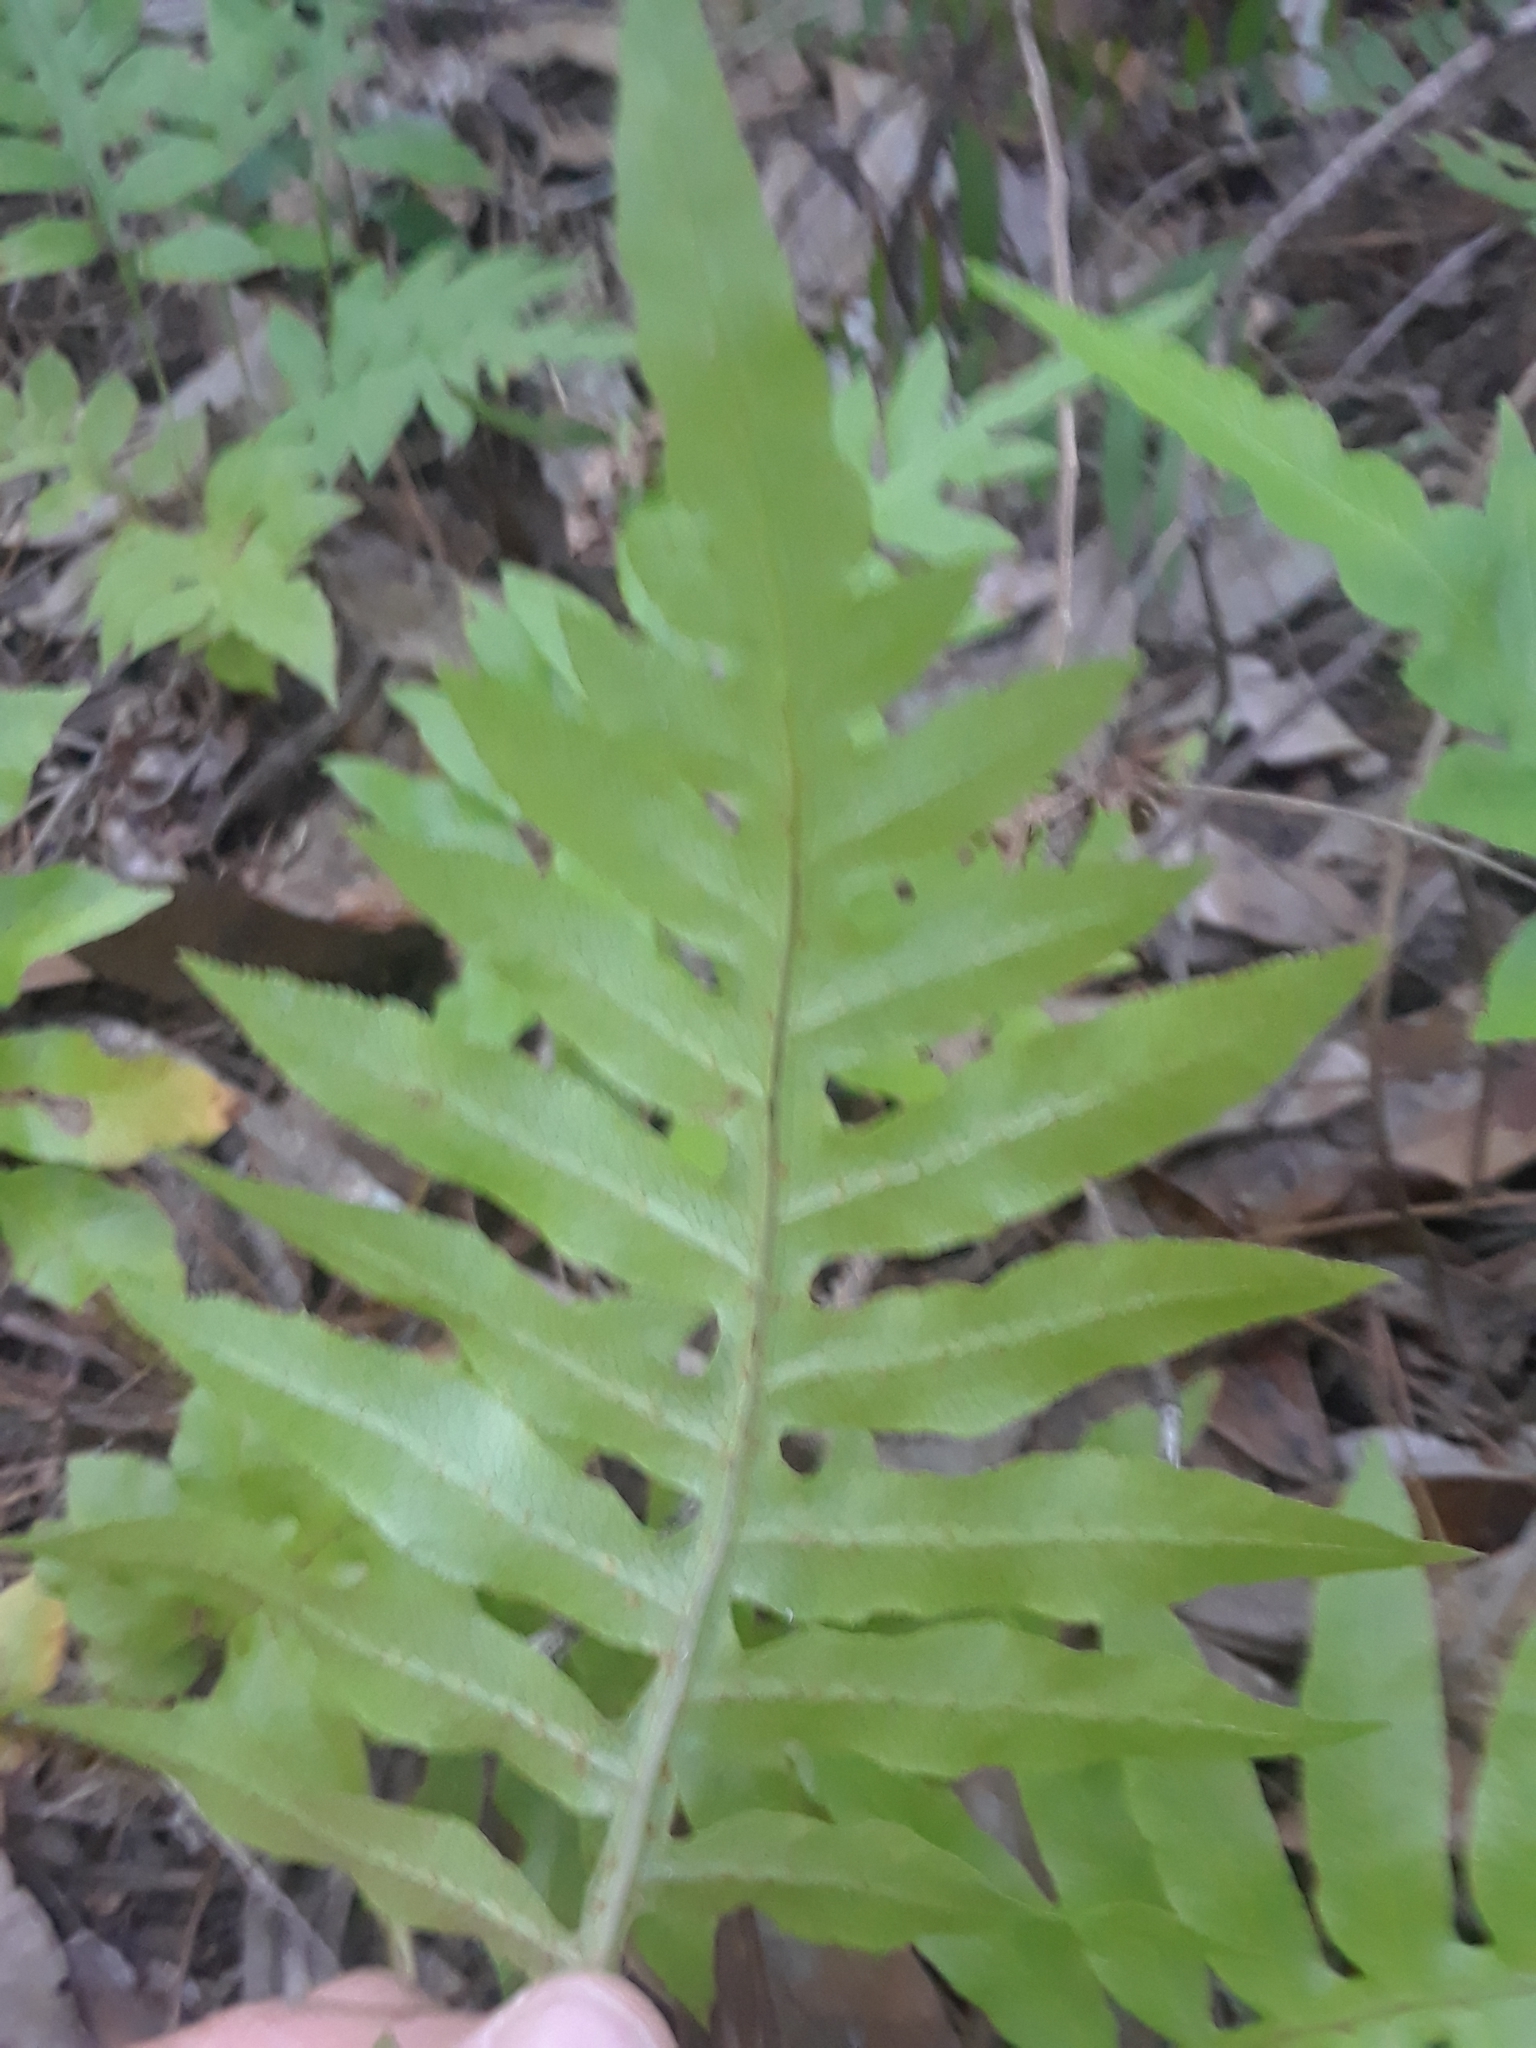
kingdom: Plantae
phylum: Tracheophyta
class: Polypodiopsida
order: Polypodiales
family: Blechnaceae
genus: Lorinseria
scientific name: Lorinseria areolata
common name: Dwarf chain fern
